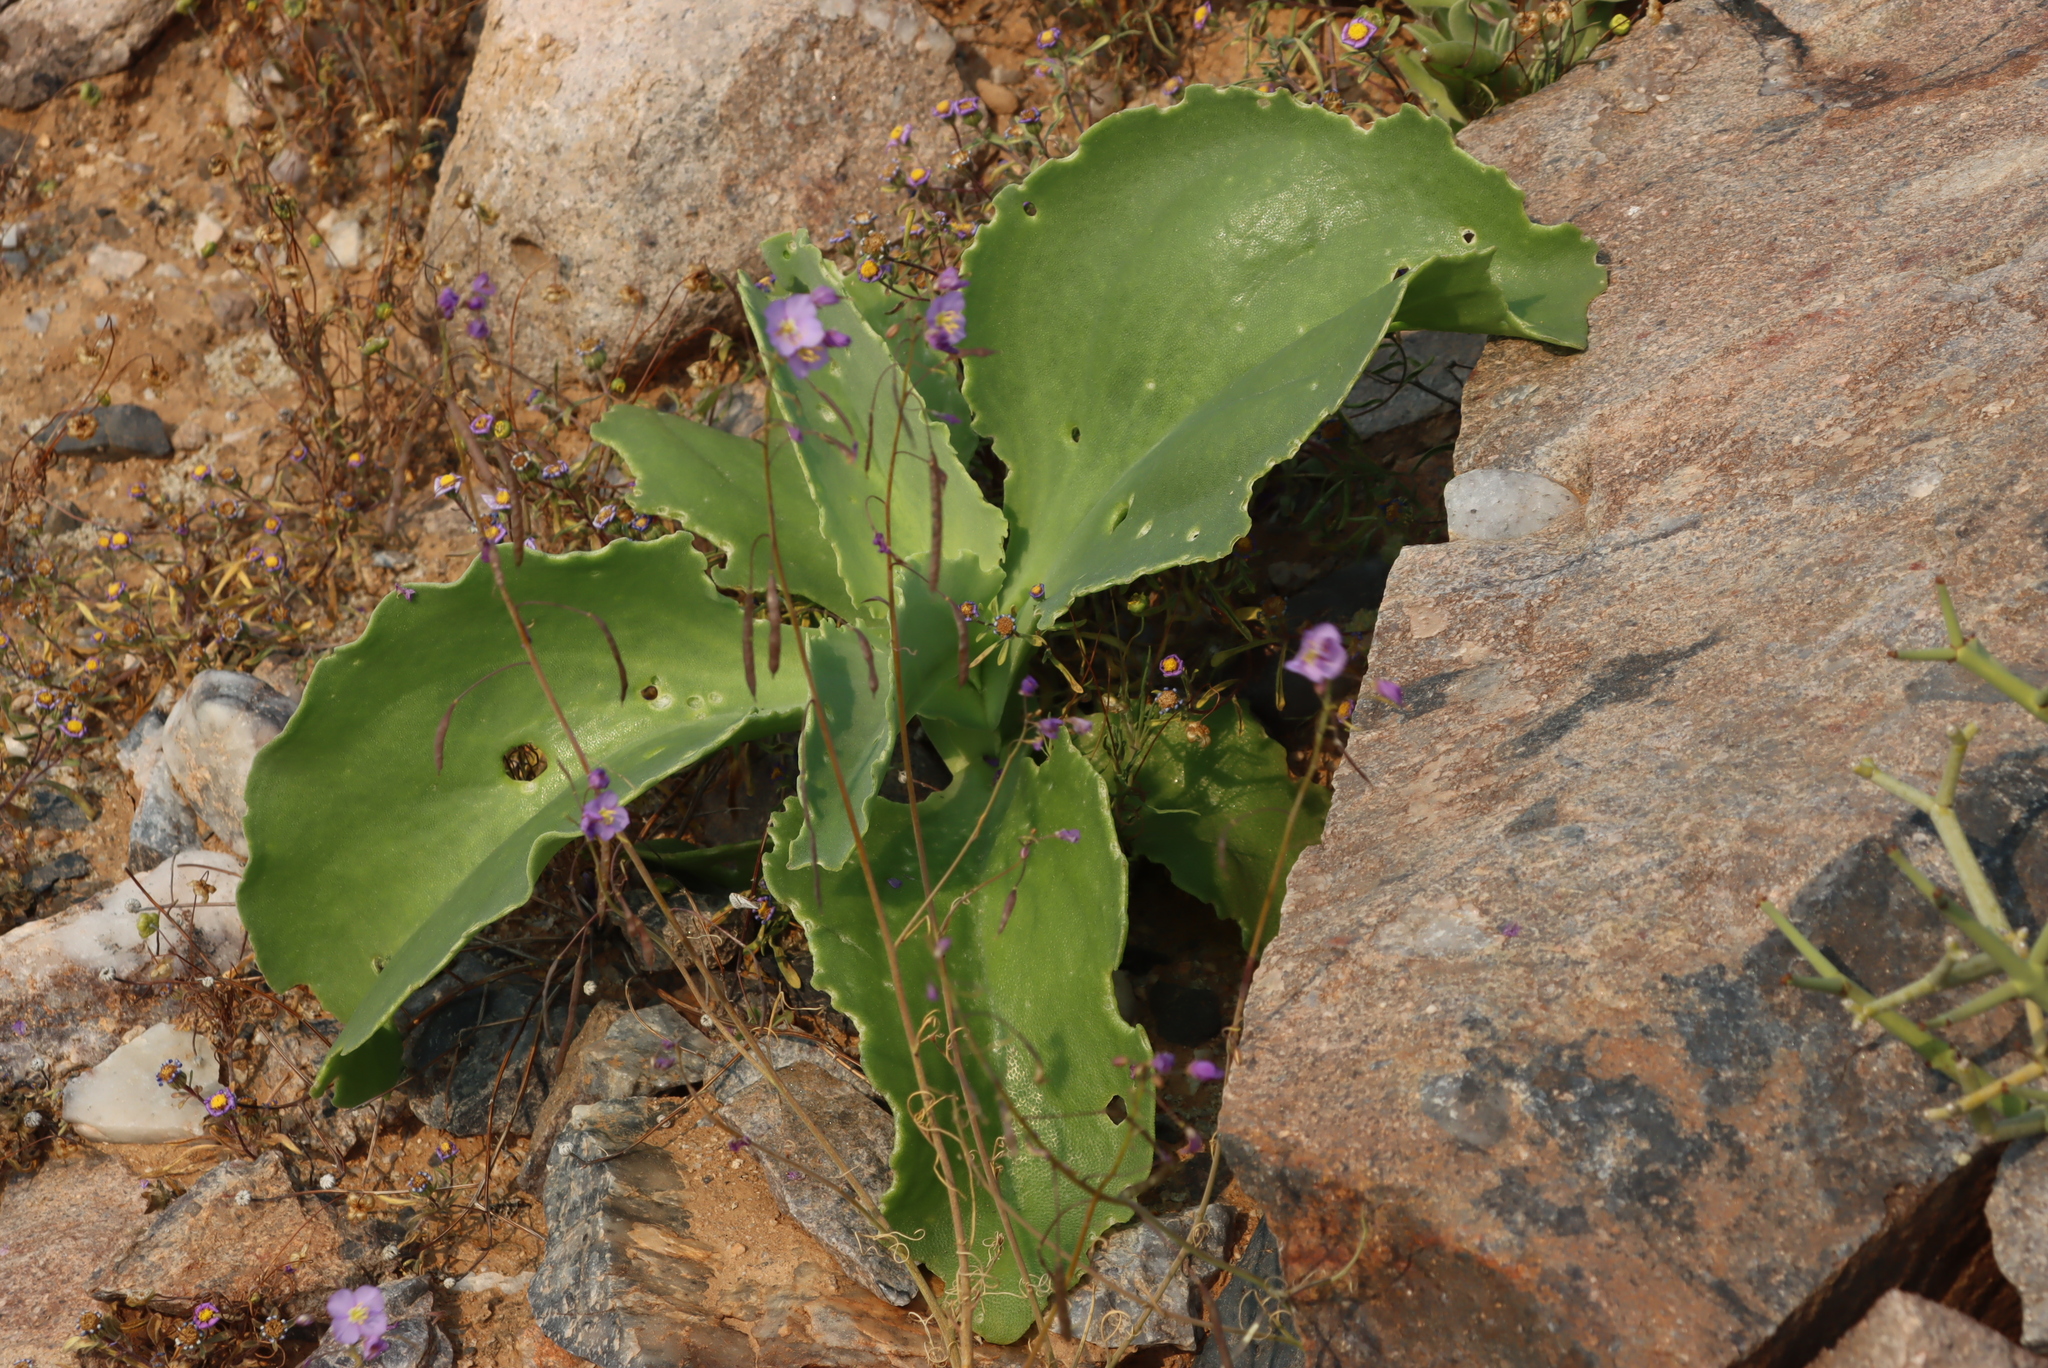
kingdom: Plantae
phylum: Tracheophyta
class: Magnoliopsida
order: Brassicales
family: Brassicaceae
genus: Heliophila
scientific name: Heliophila trifurca
